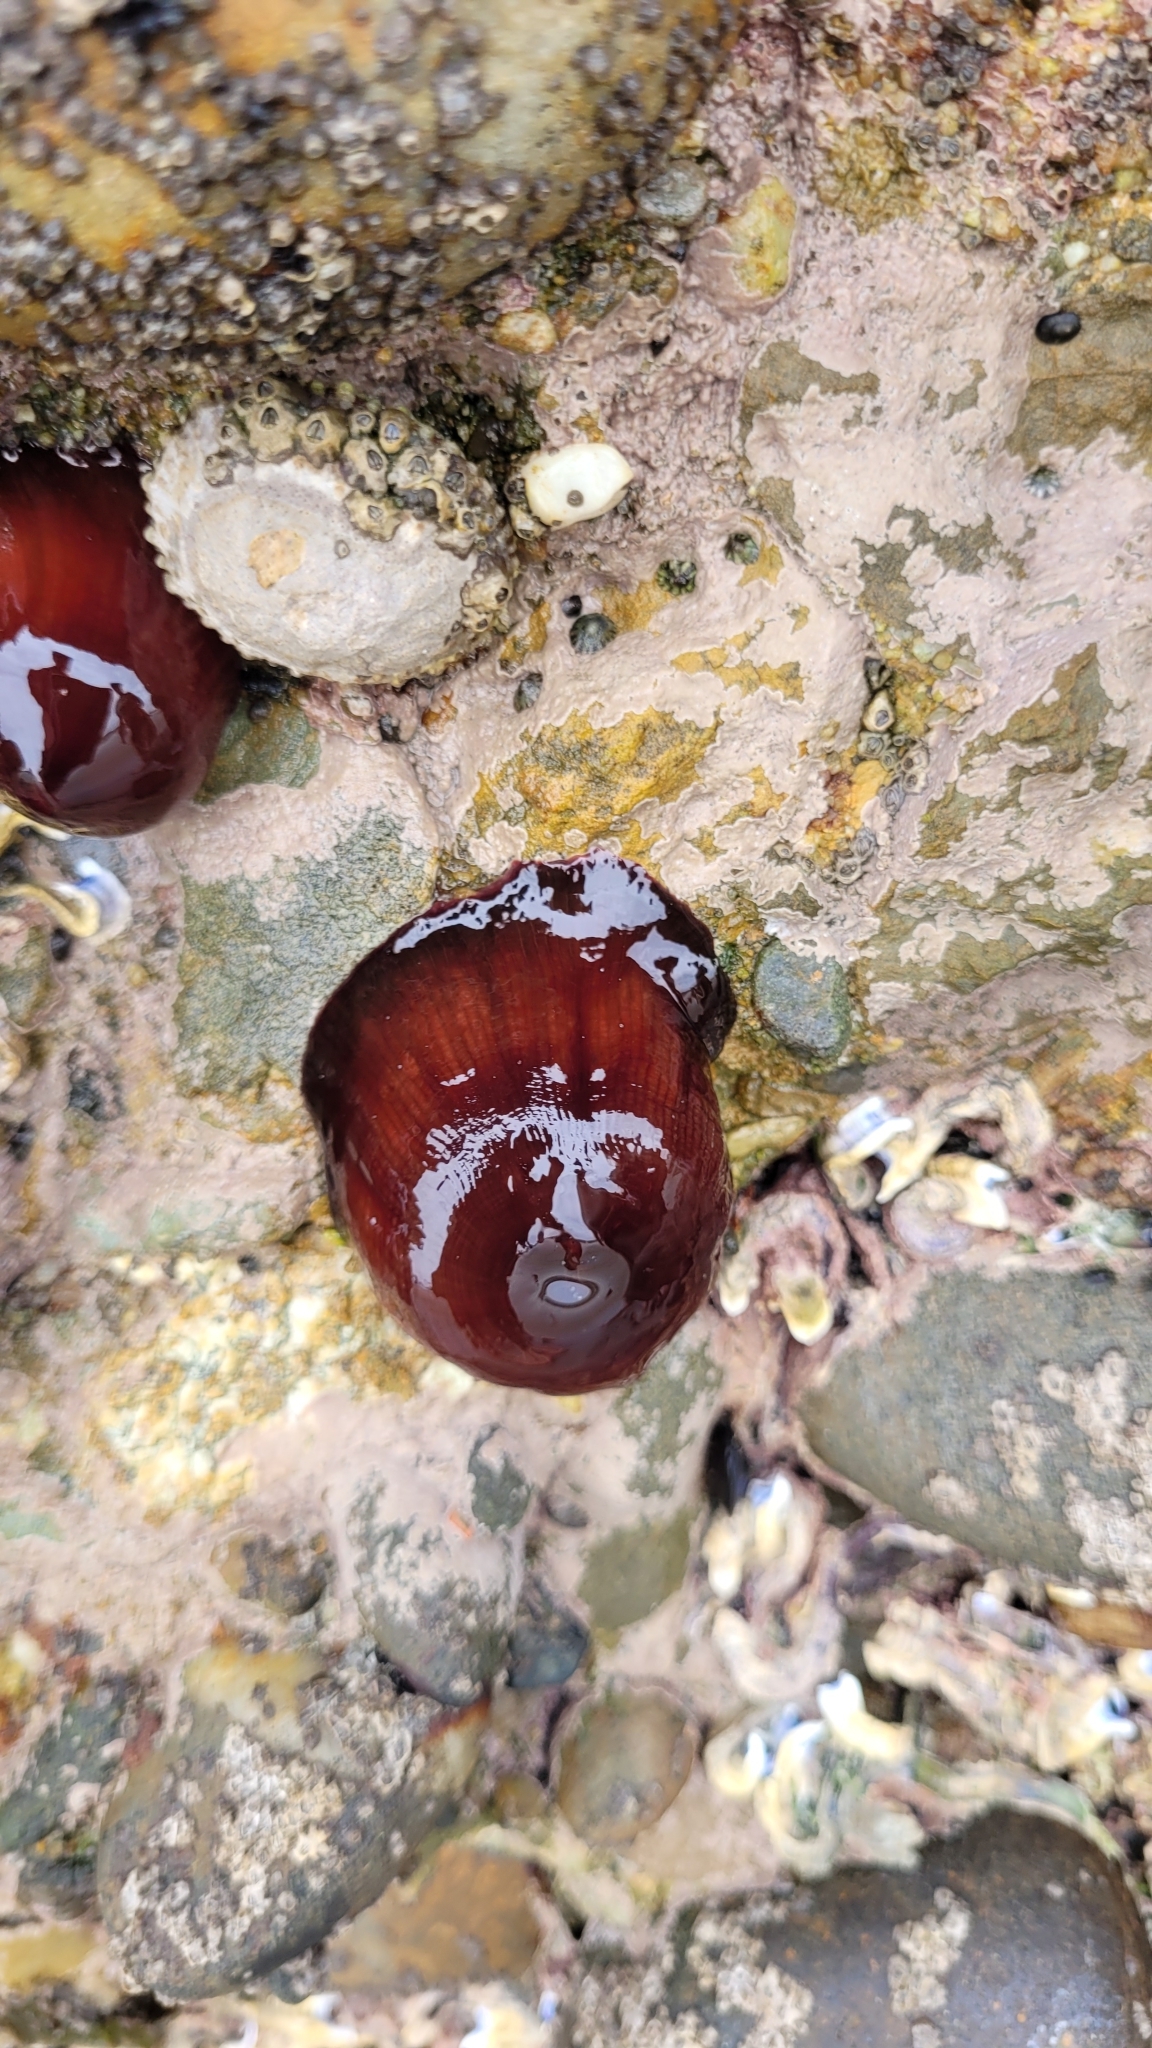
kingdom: Animalia
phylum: Cnidaria
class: Anthozoa
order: Actiniaria
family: Actiniidae
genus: Actinia
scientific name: Actinia tenebrosa
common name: Waratah anemone
